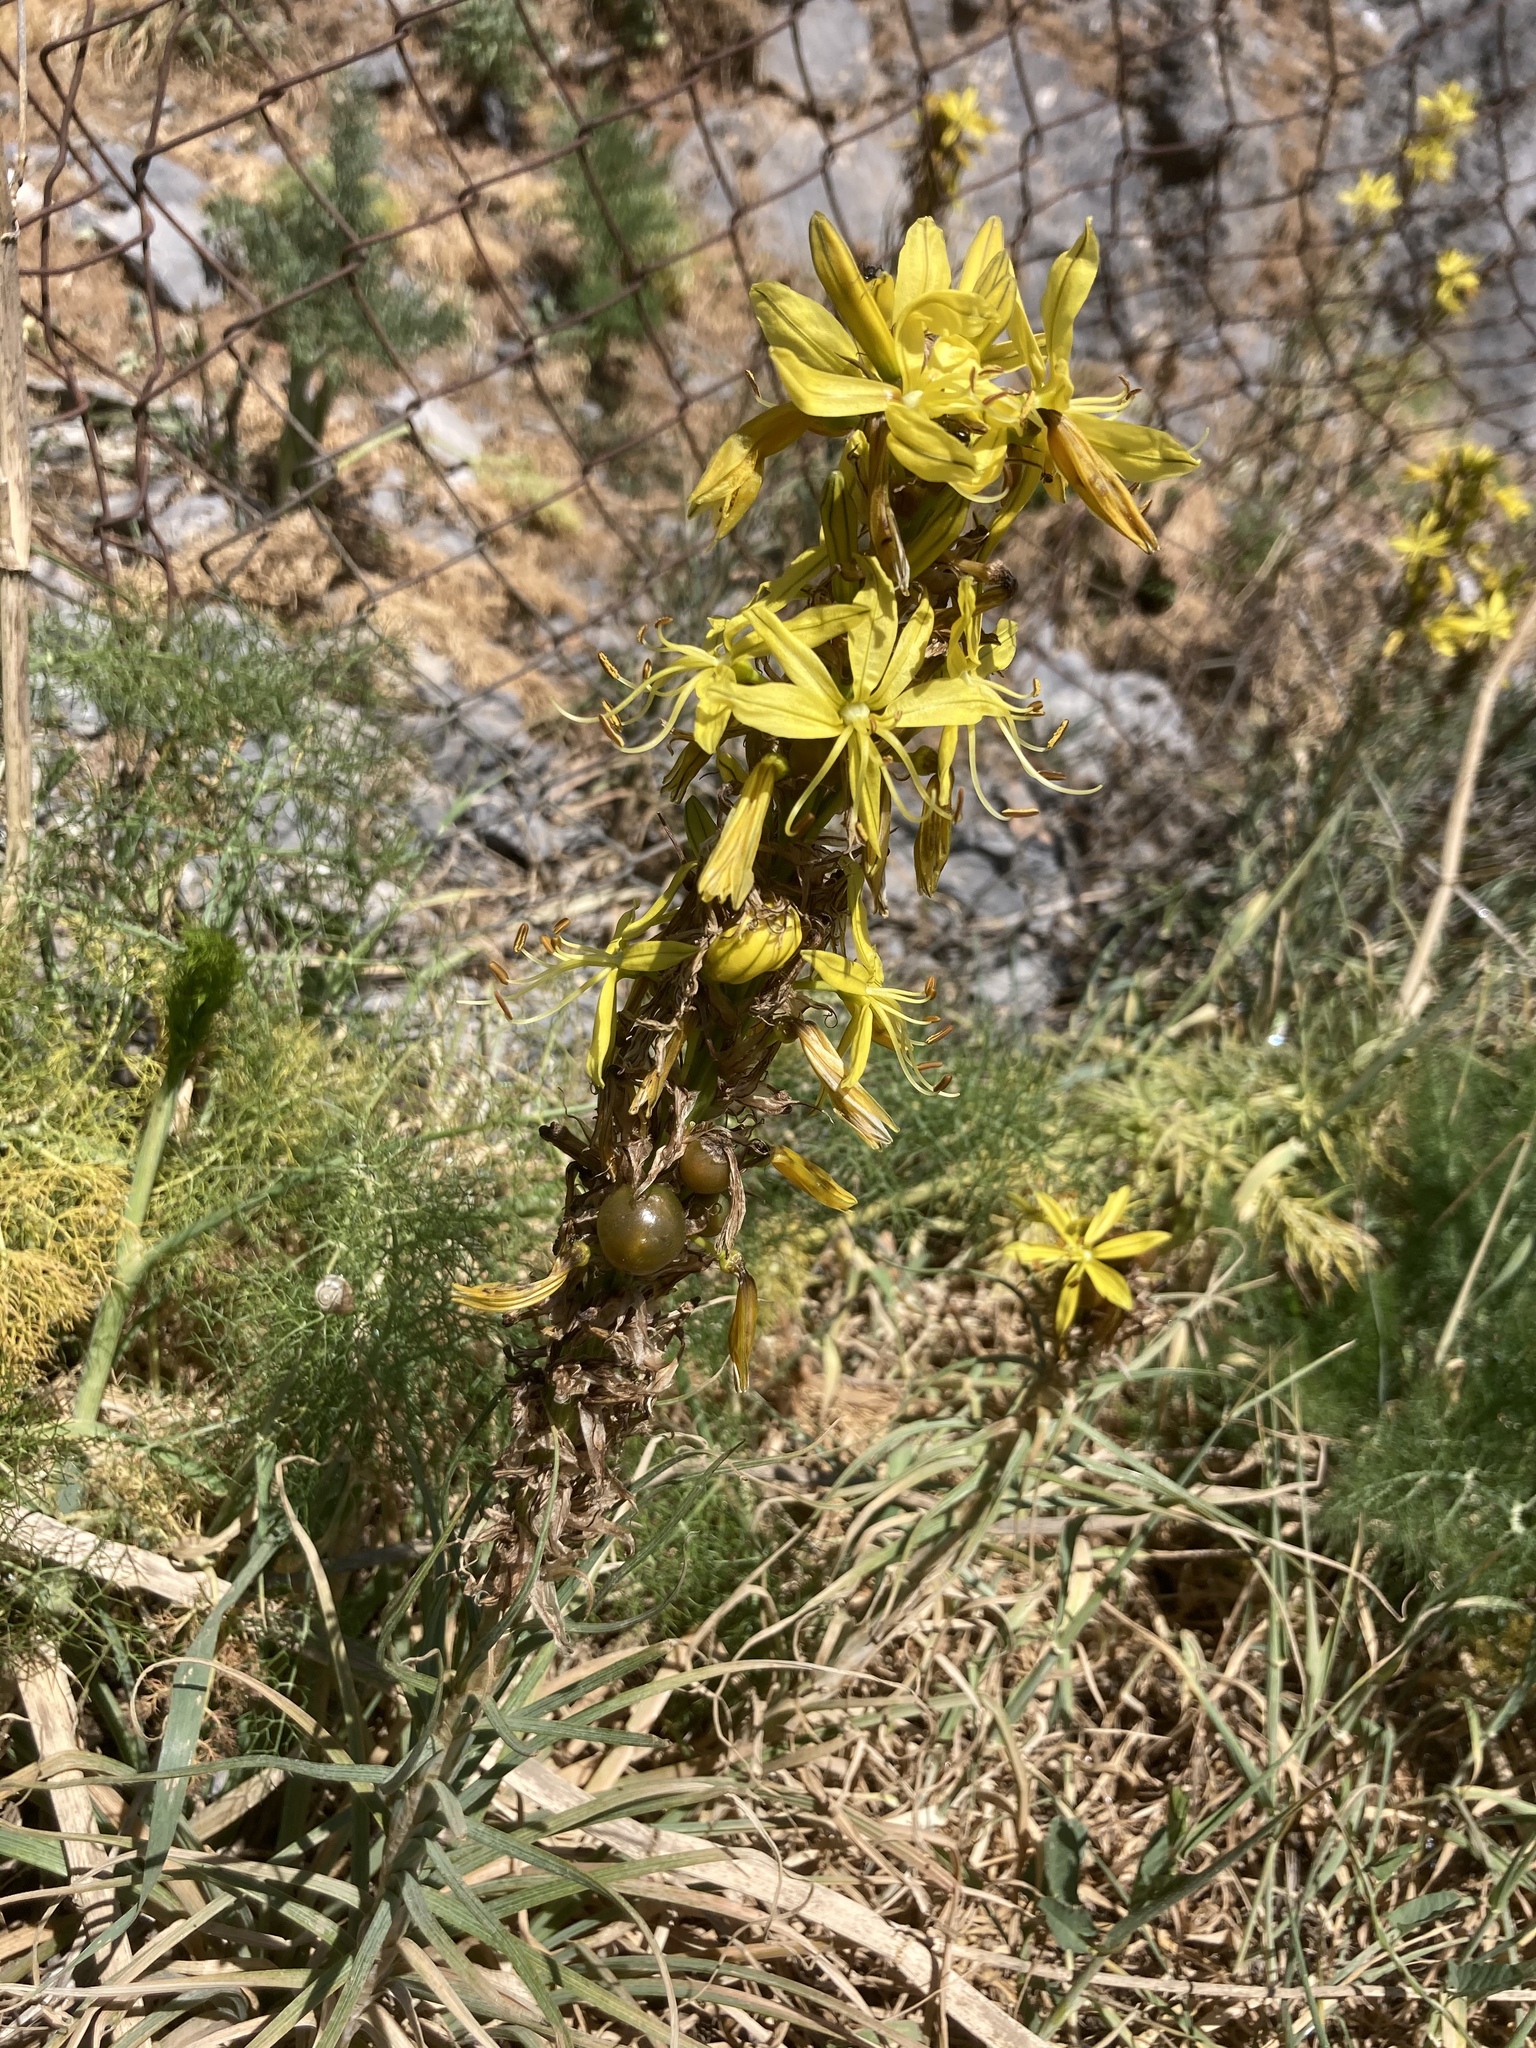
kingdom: Plantae
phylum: Tracheophyta
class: Liliopsida
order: Asparagales
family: Asphodelaceae
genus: Asphodeline
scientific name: Asphodeline lutea
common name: Yellow asphodel
